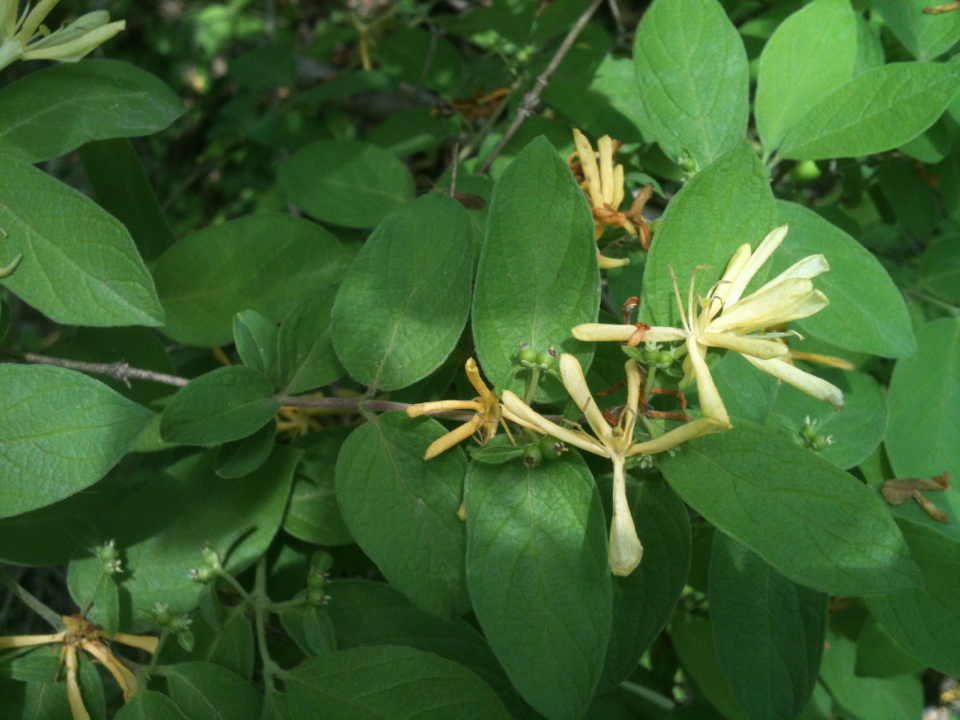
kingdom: Plantae
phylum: Tracheophyta
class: Magnoliopsida
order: Dipsacales
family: Caprifoliaceae
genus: Lonicera
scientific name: Lonicera morrowii
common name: Morrow's honeysuckle
